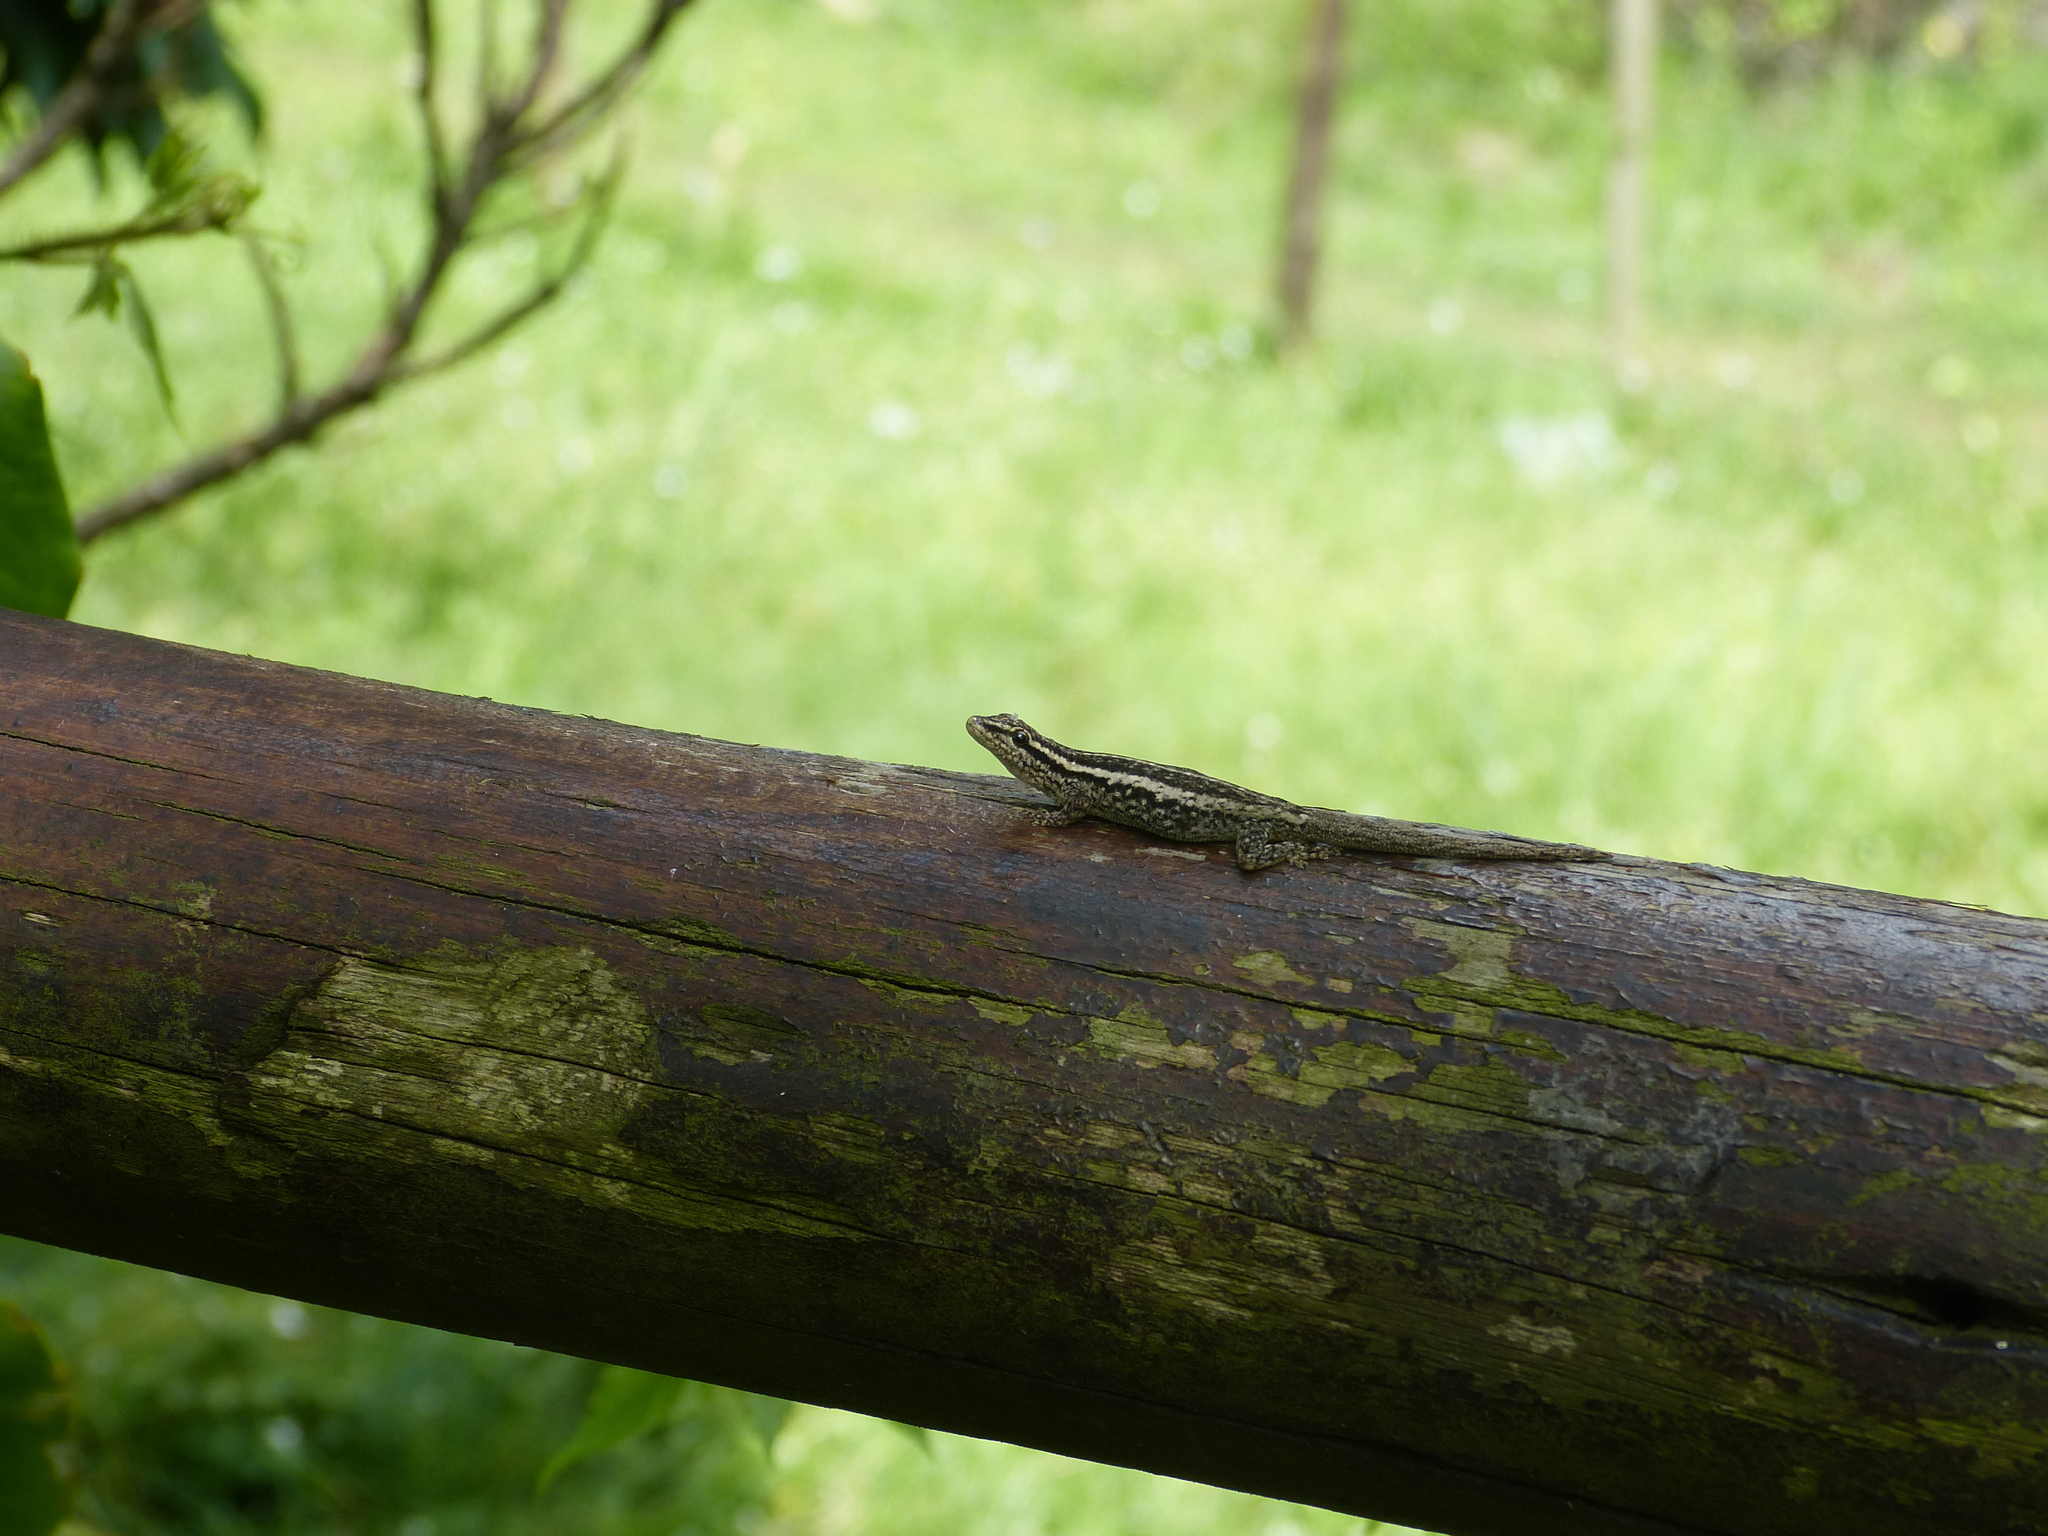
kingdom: Animalia
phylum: Chordata
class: Squamata
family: Gekkonidae
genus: Lygodactylus
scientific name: Lygodactylus capensis
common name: Cape dwarf gecko
